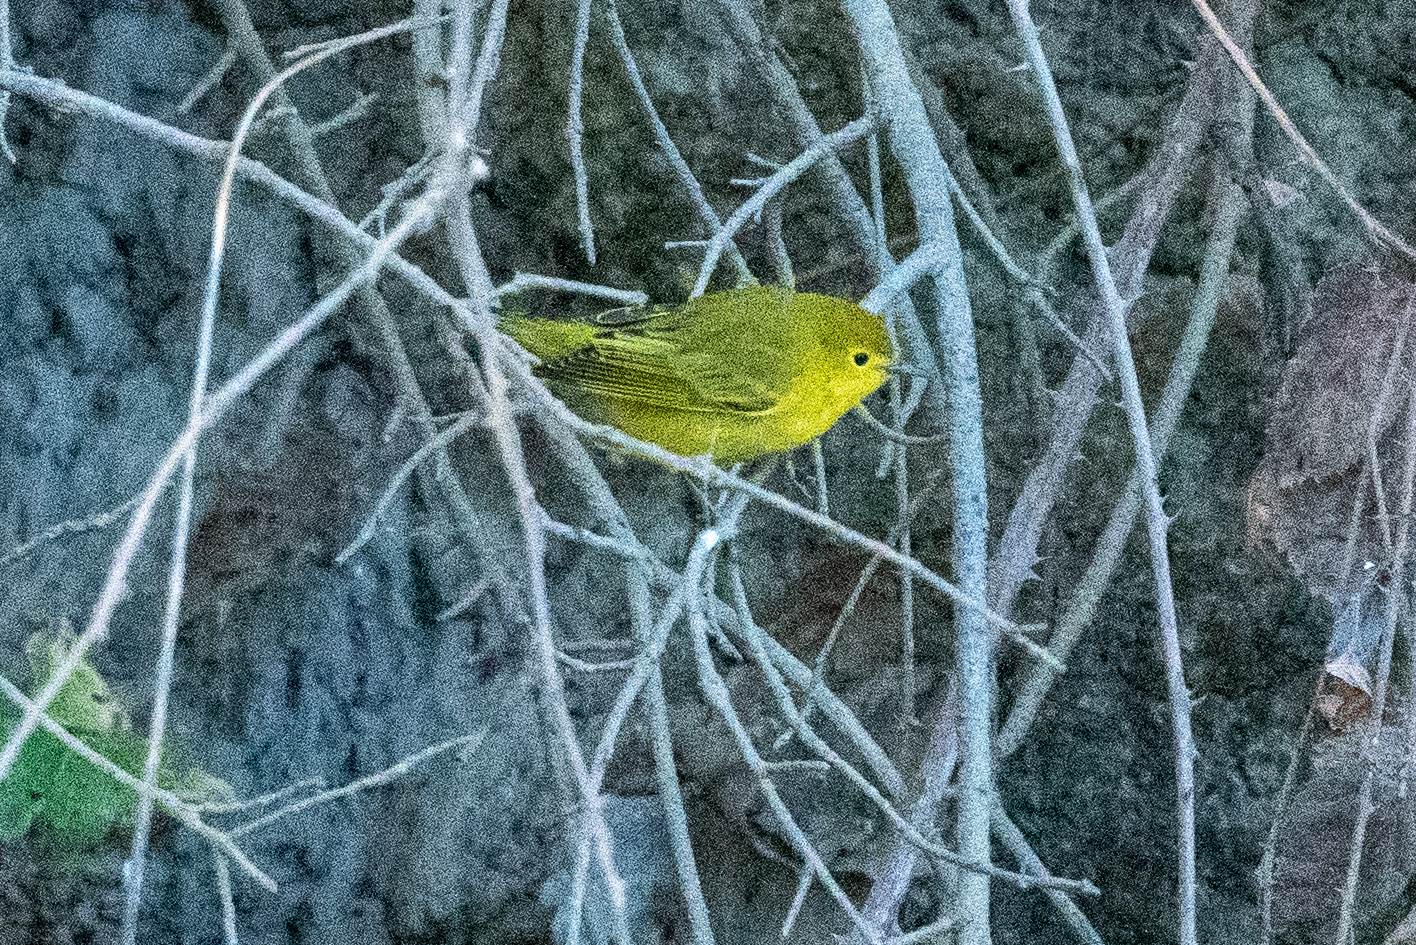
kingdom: Animalia
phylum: Chordata
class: Aves
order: Passeriformes
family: Parulidae
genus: Setophaga
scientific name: Setophaga petechia
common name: Yellow warbler
